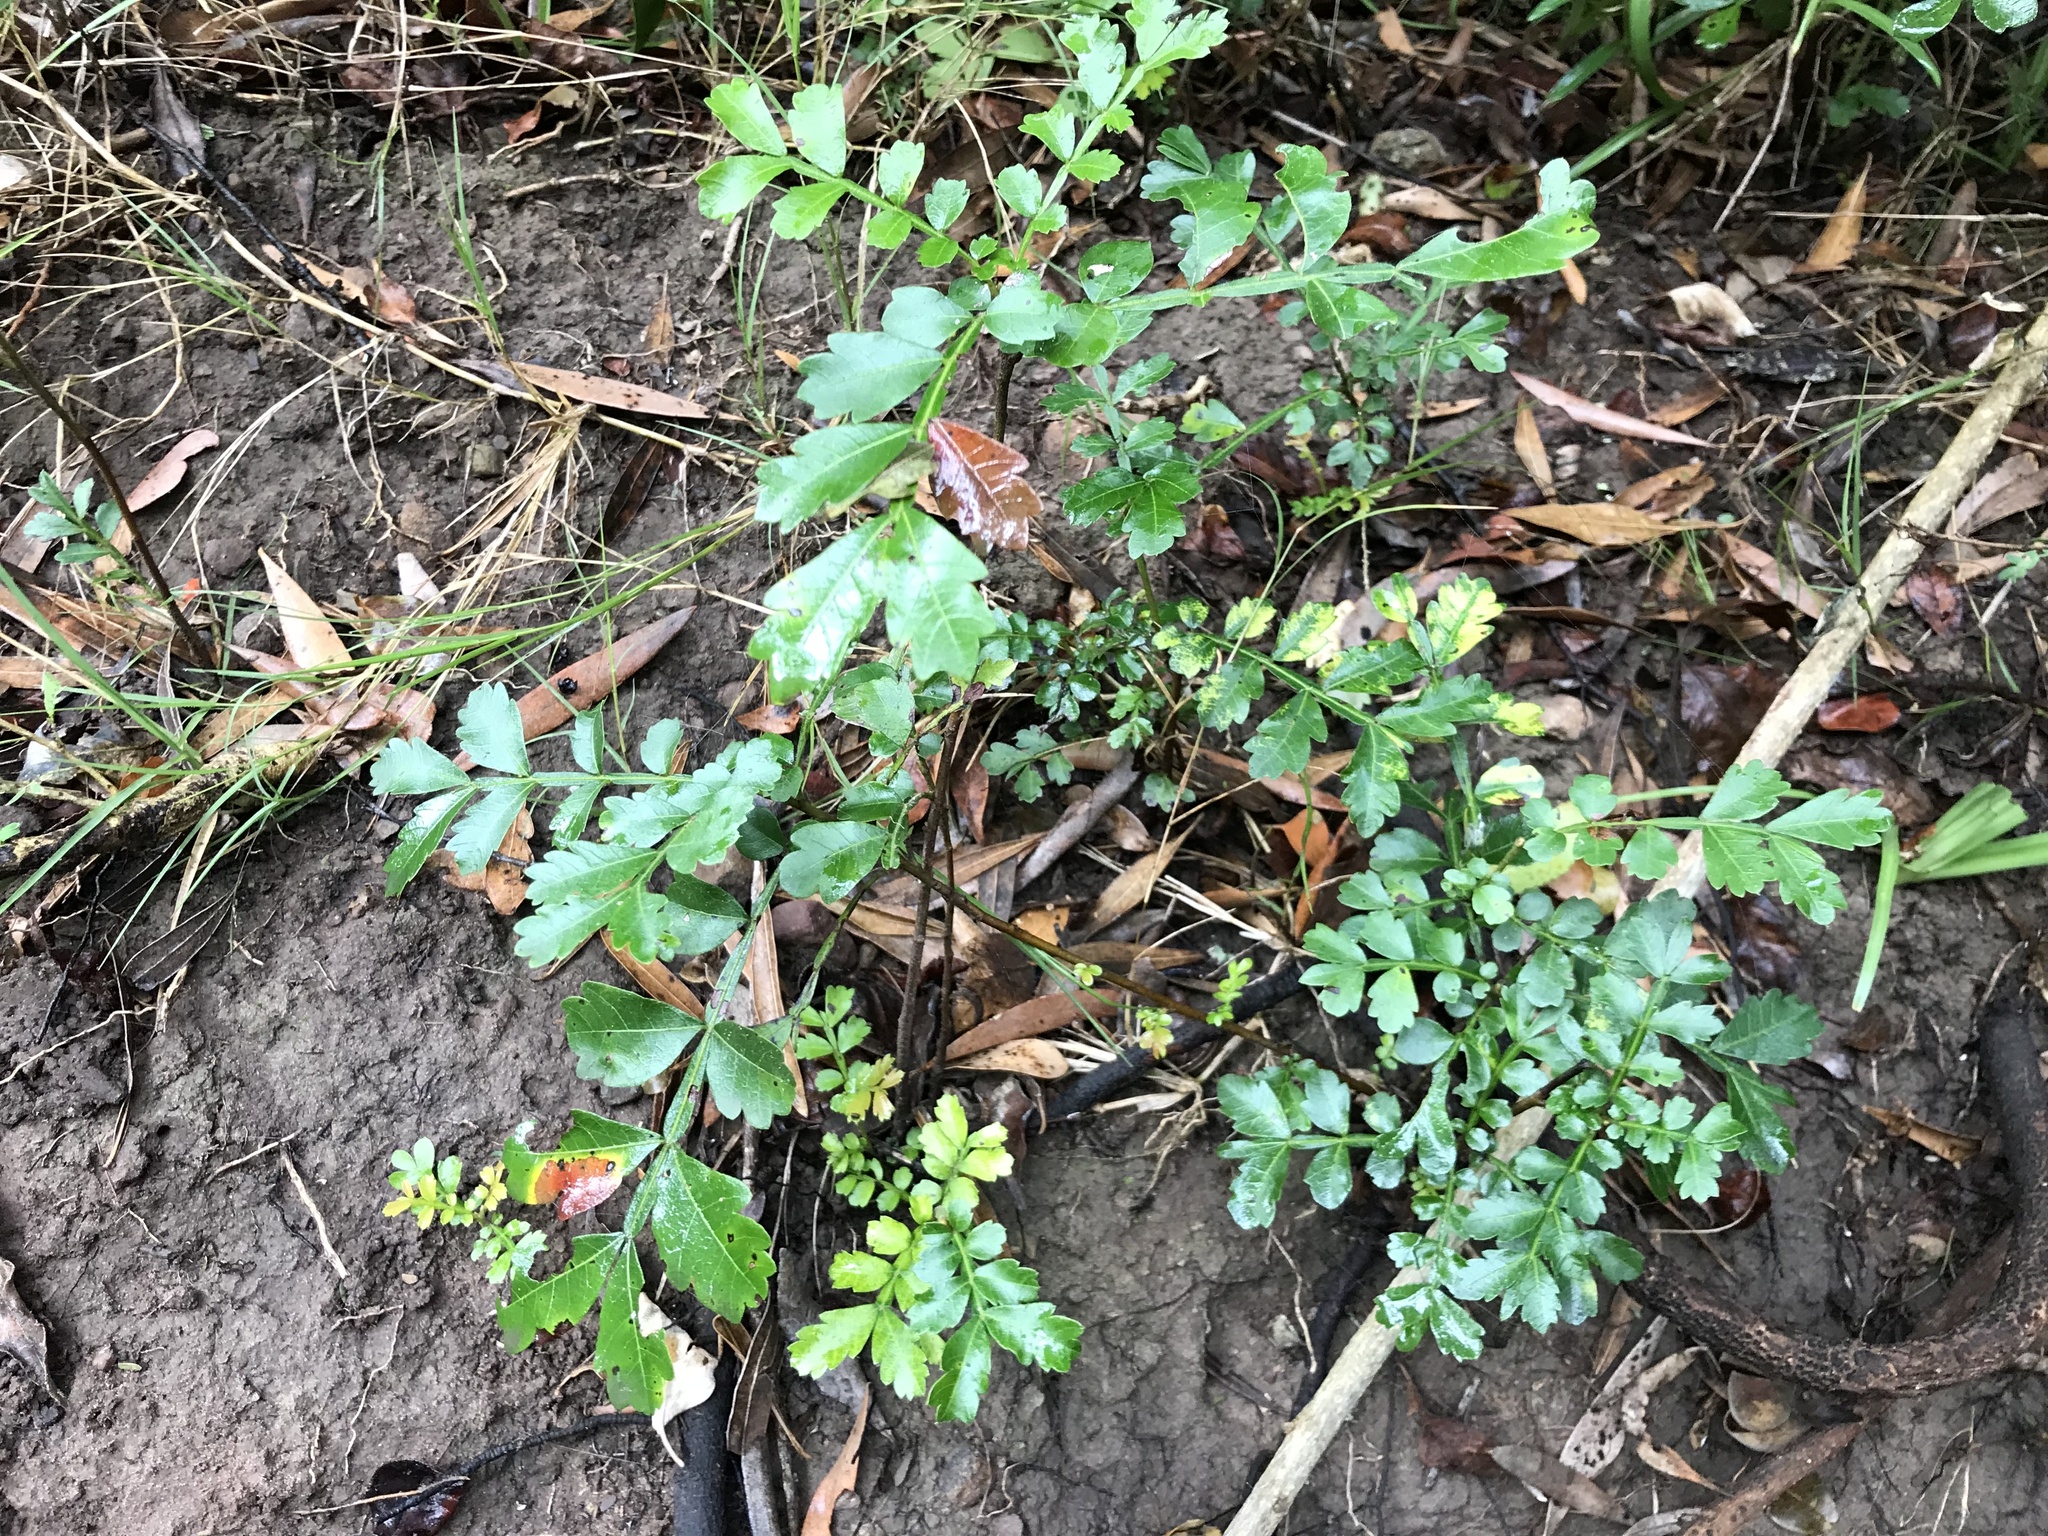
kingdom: Plantae
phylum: Tracheophyta
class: Magnoliopsida
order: Sapindales
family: Sapindaceae
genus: Hippobromus
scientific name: Hippobromus pauciflorus
